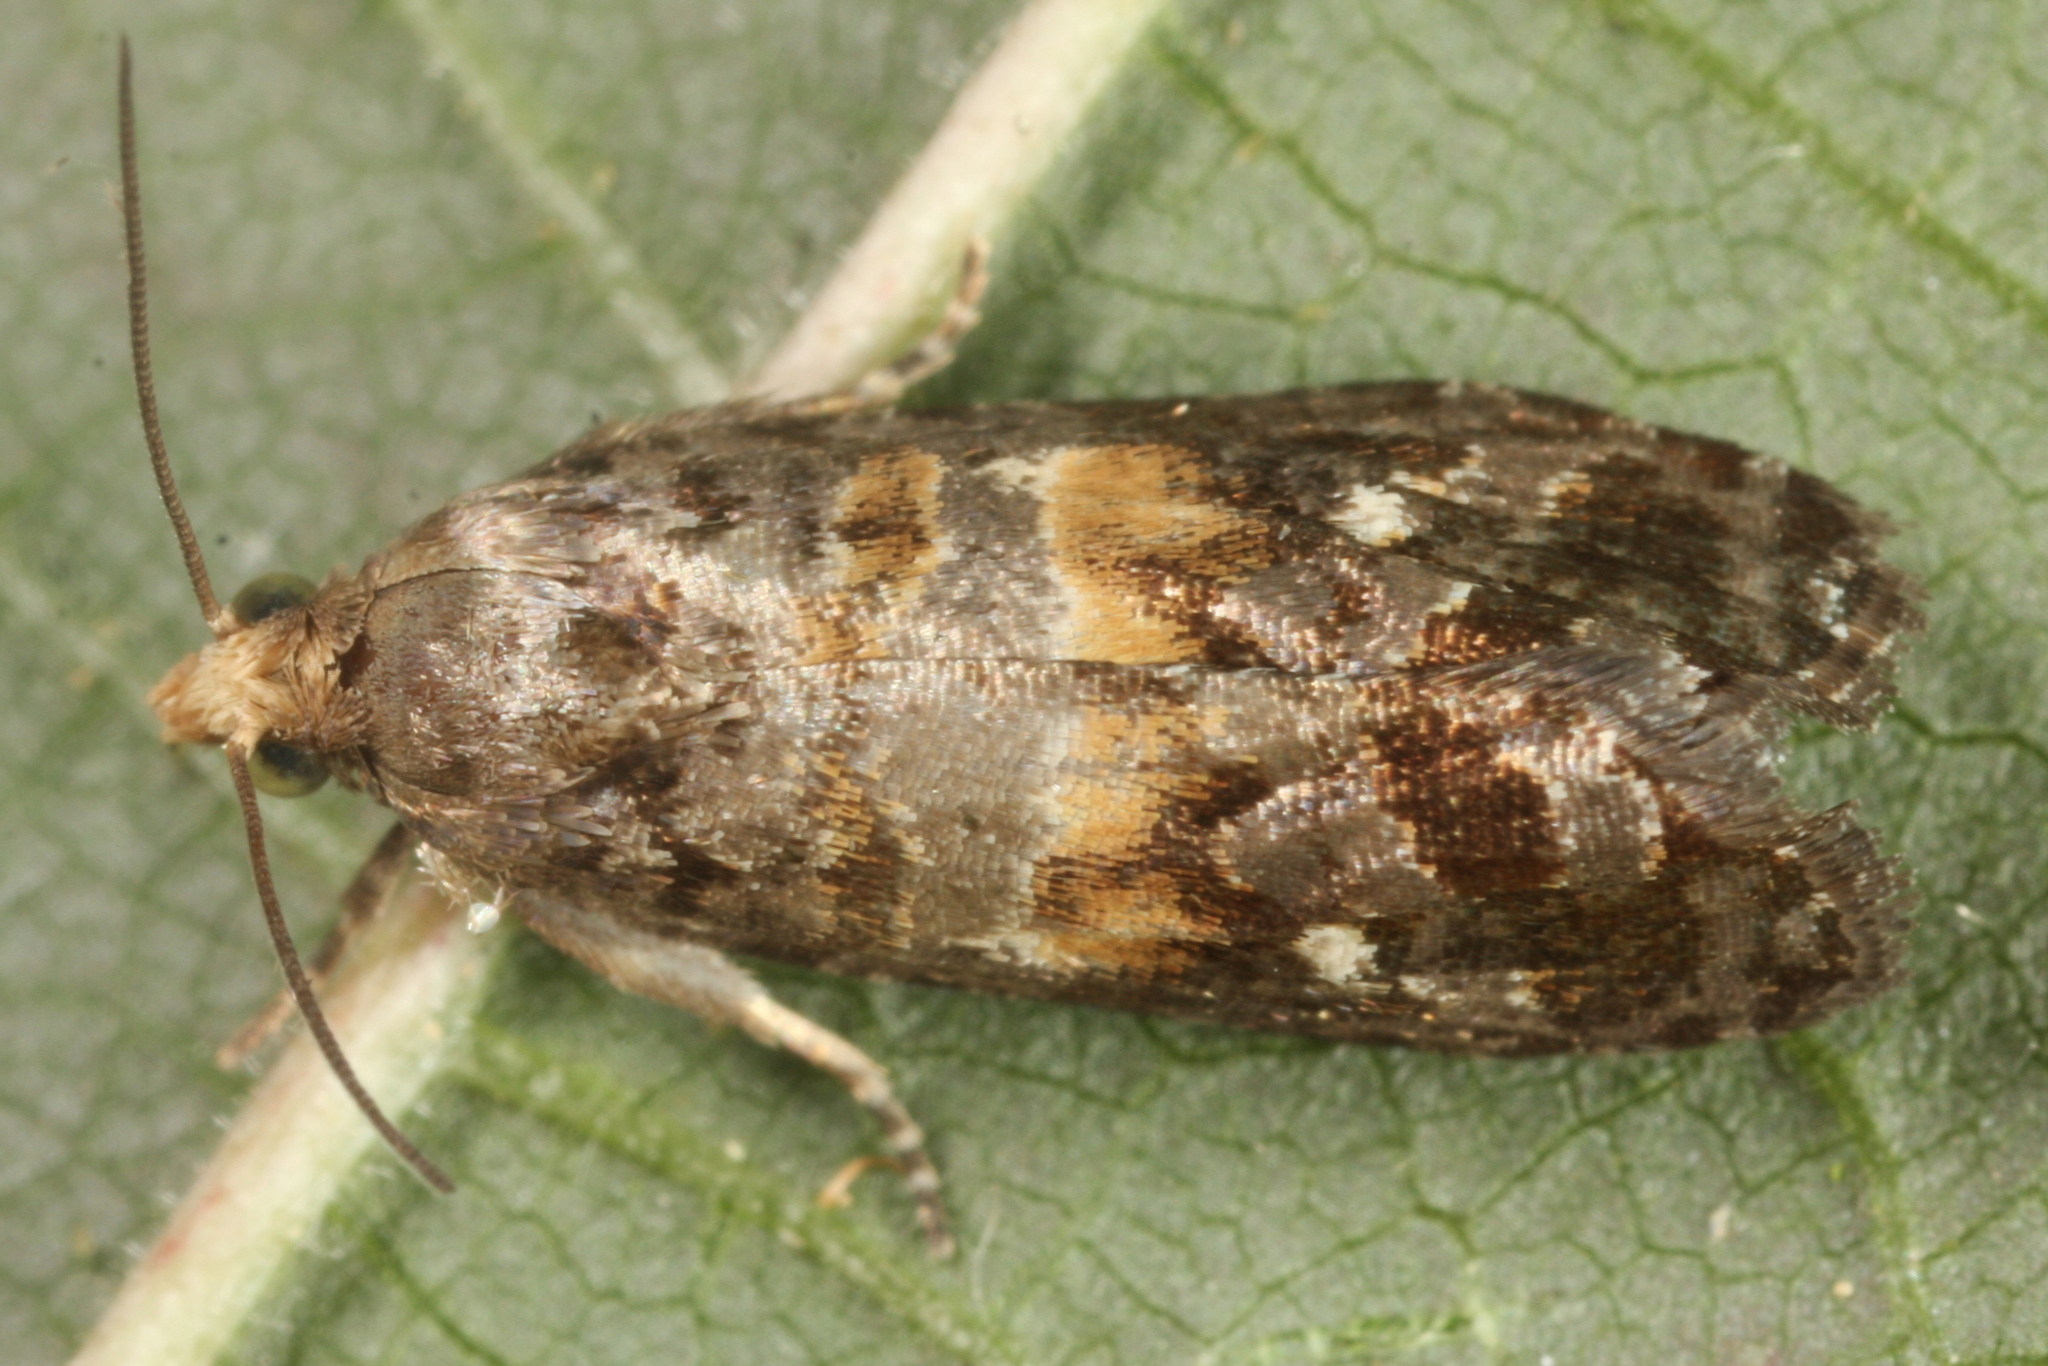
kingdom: Animalia
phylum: Arthropoda
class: Insecta
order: Lepidoptera
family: Tortricidae
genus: Cymolomia
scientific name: Cymolomia hartigiana
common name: Tortrix moth
